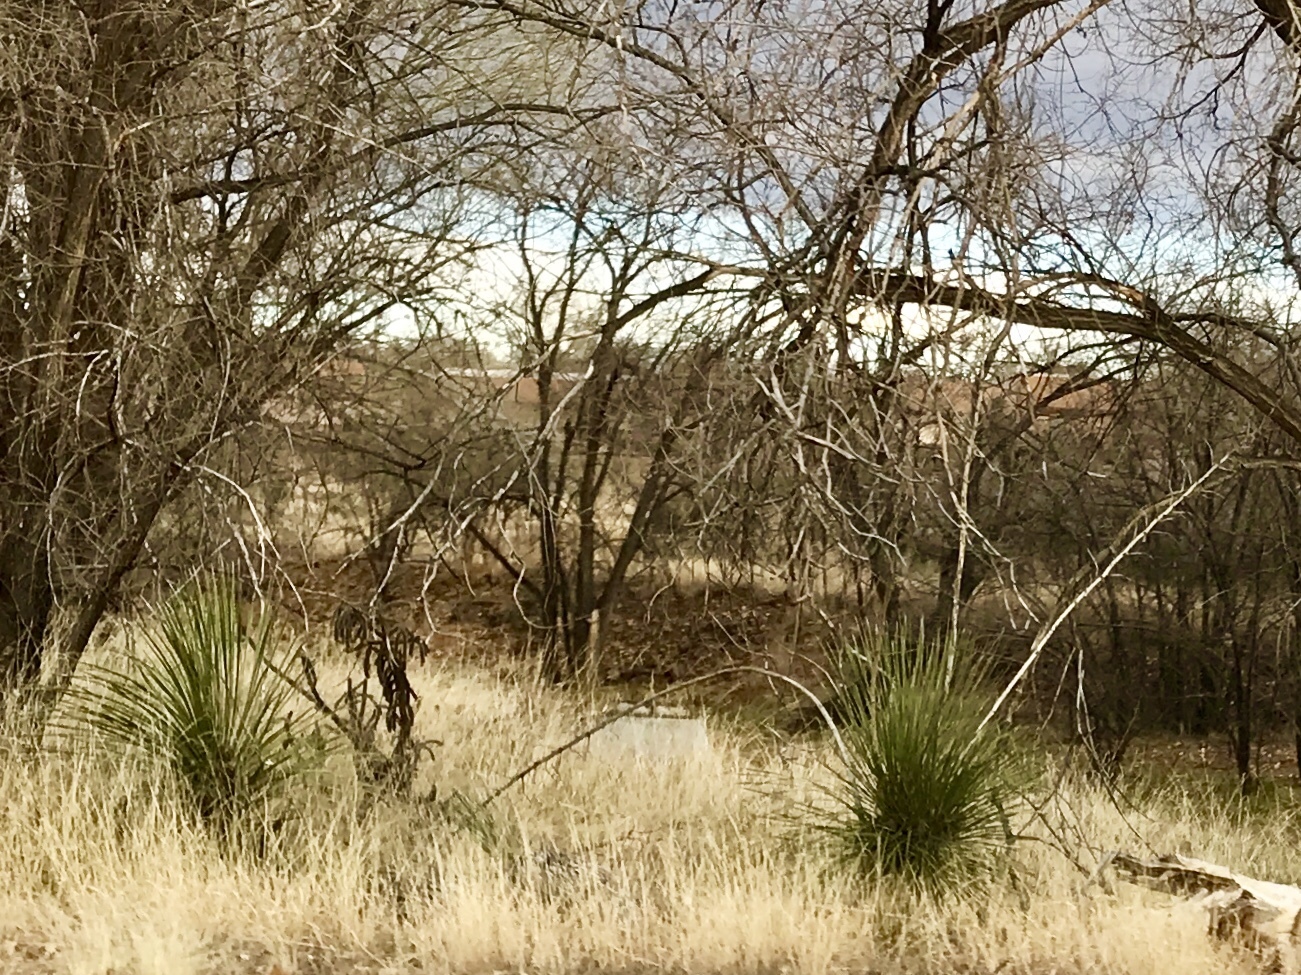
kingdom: Plantae
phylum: Tracheophyta
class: Liliopsida
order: Asparagales
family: Asparagaceae
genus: Yucca
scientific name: Yucca elata
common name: Palmella
